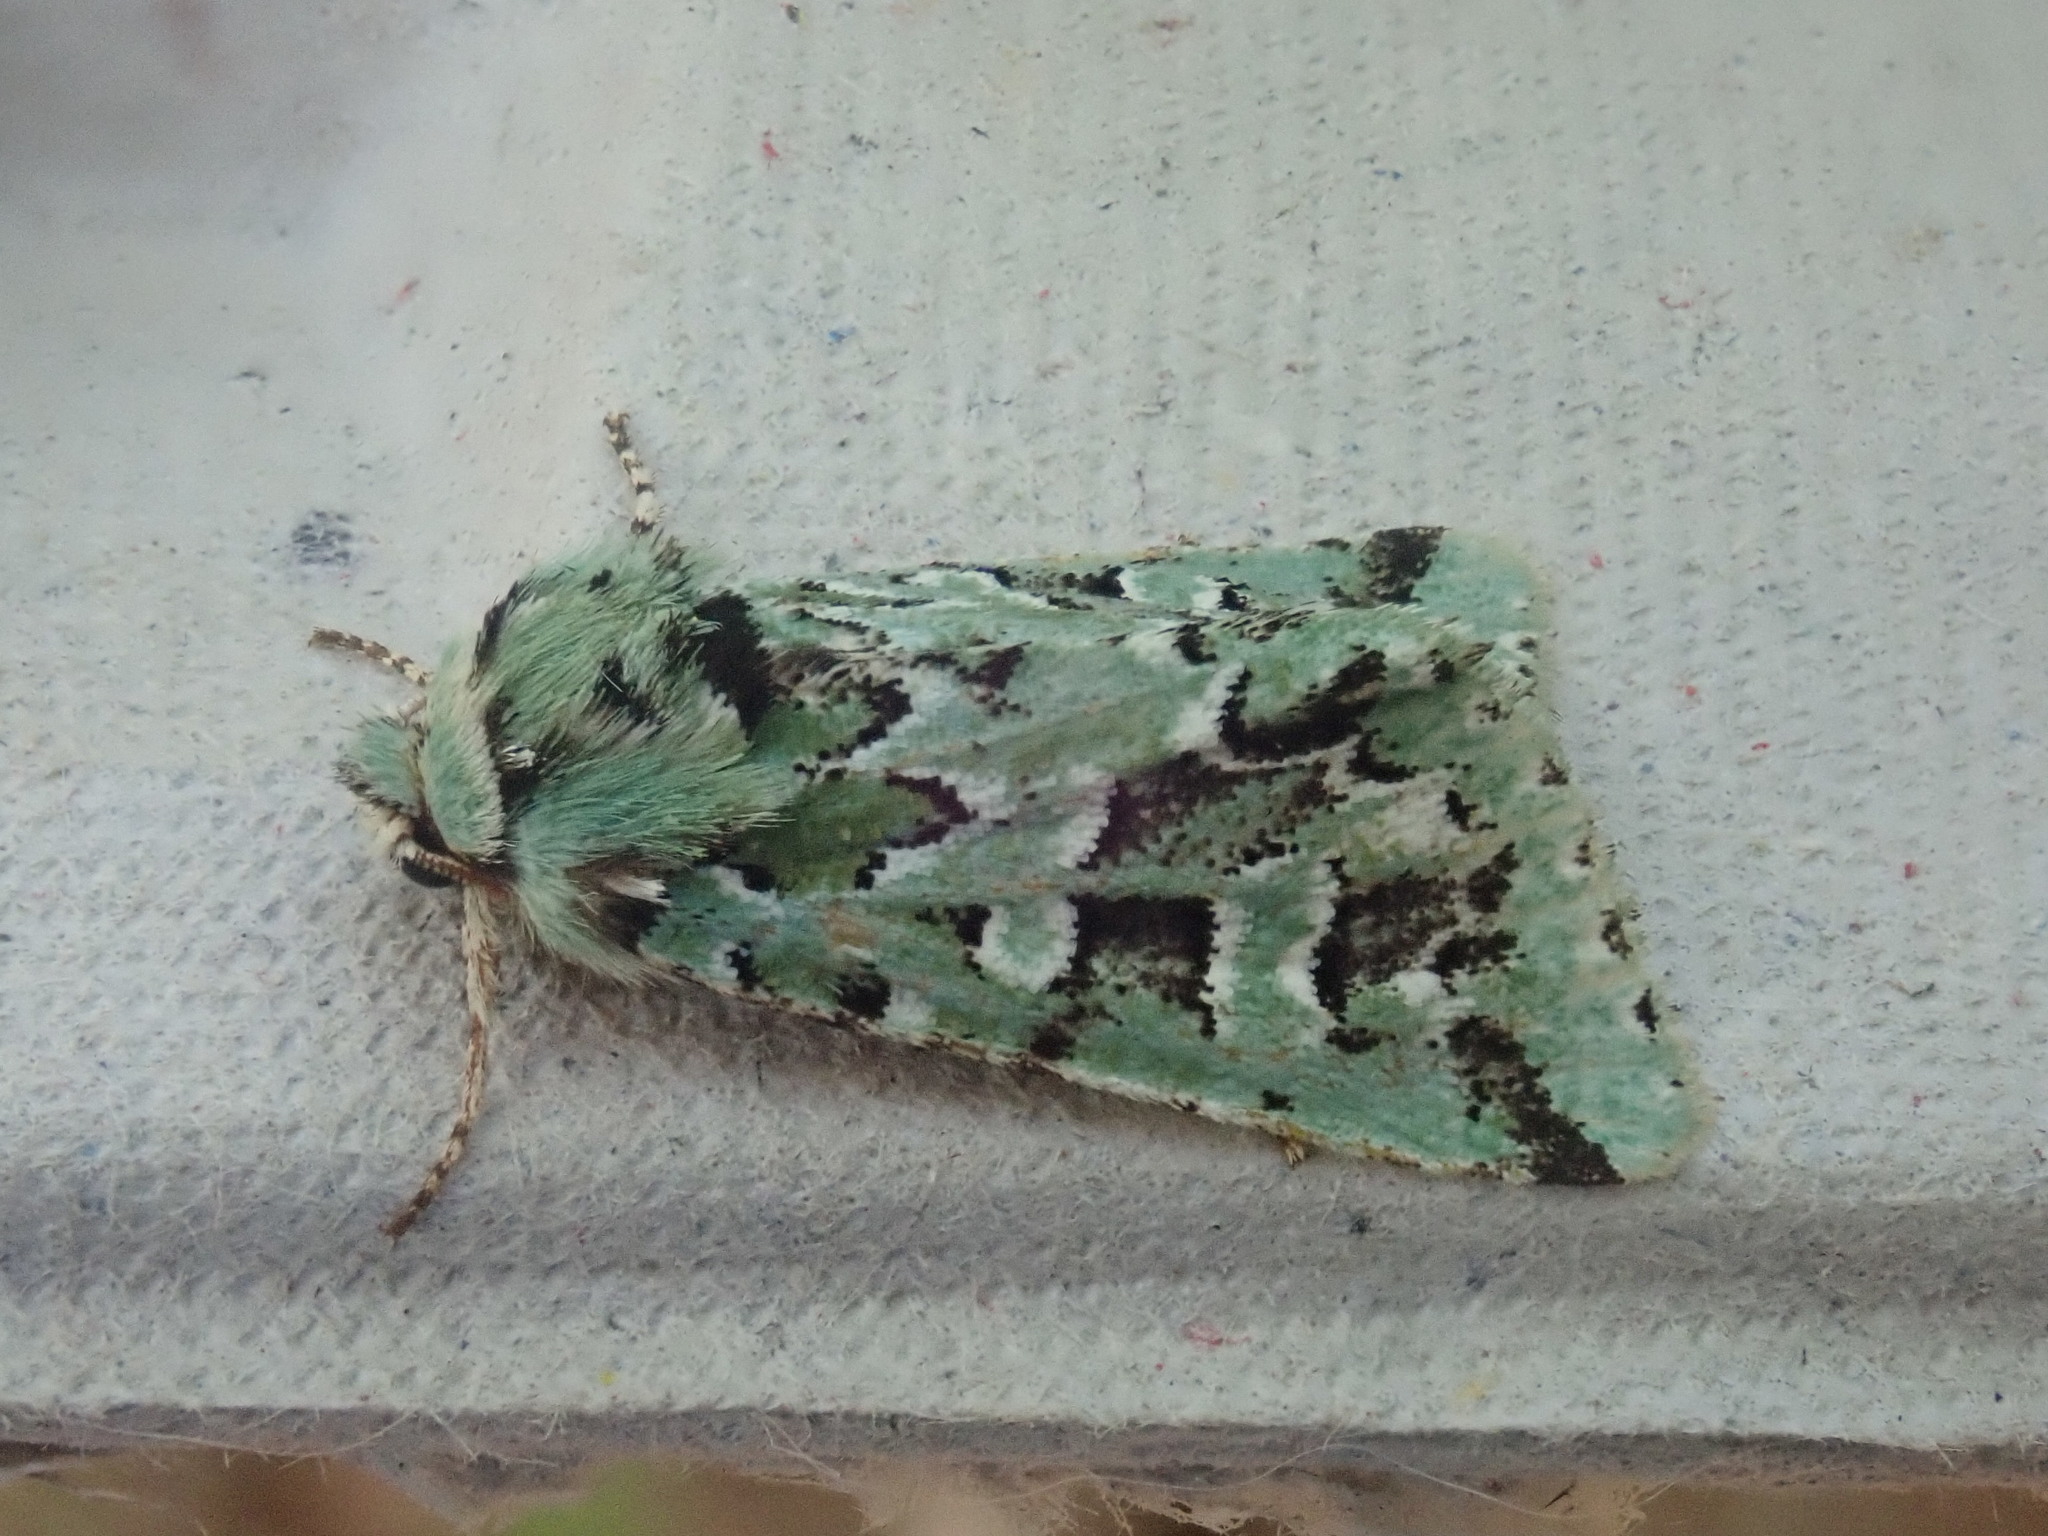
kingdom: Animalia
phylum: Arthropoda
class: Insecta
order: Lepidoptera
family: Noctuidae
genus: Feralia
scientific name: Feralia comstocki
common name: Comstock's sallow
